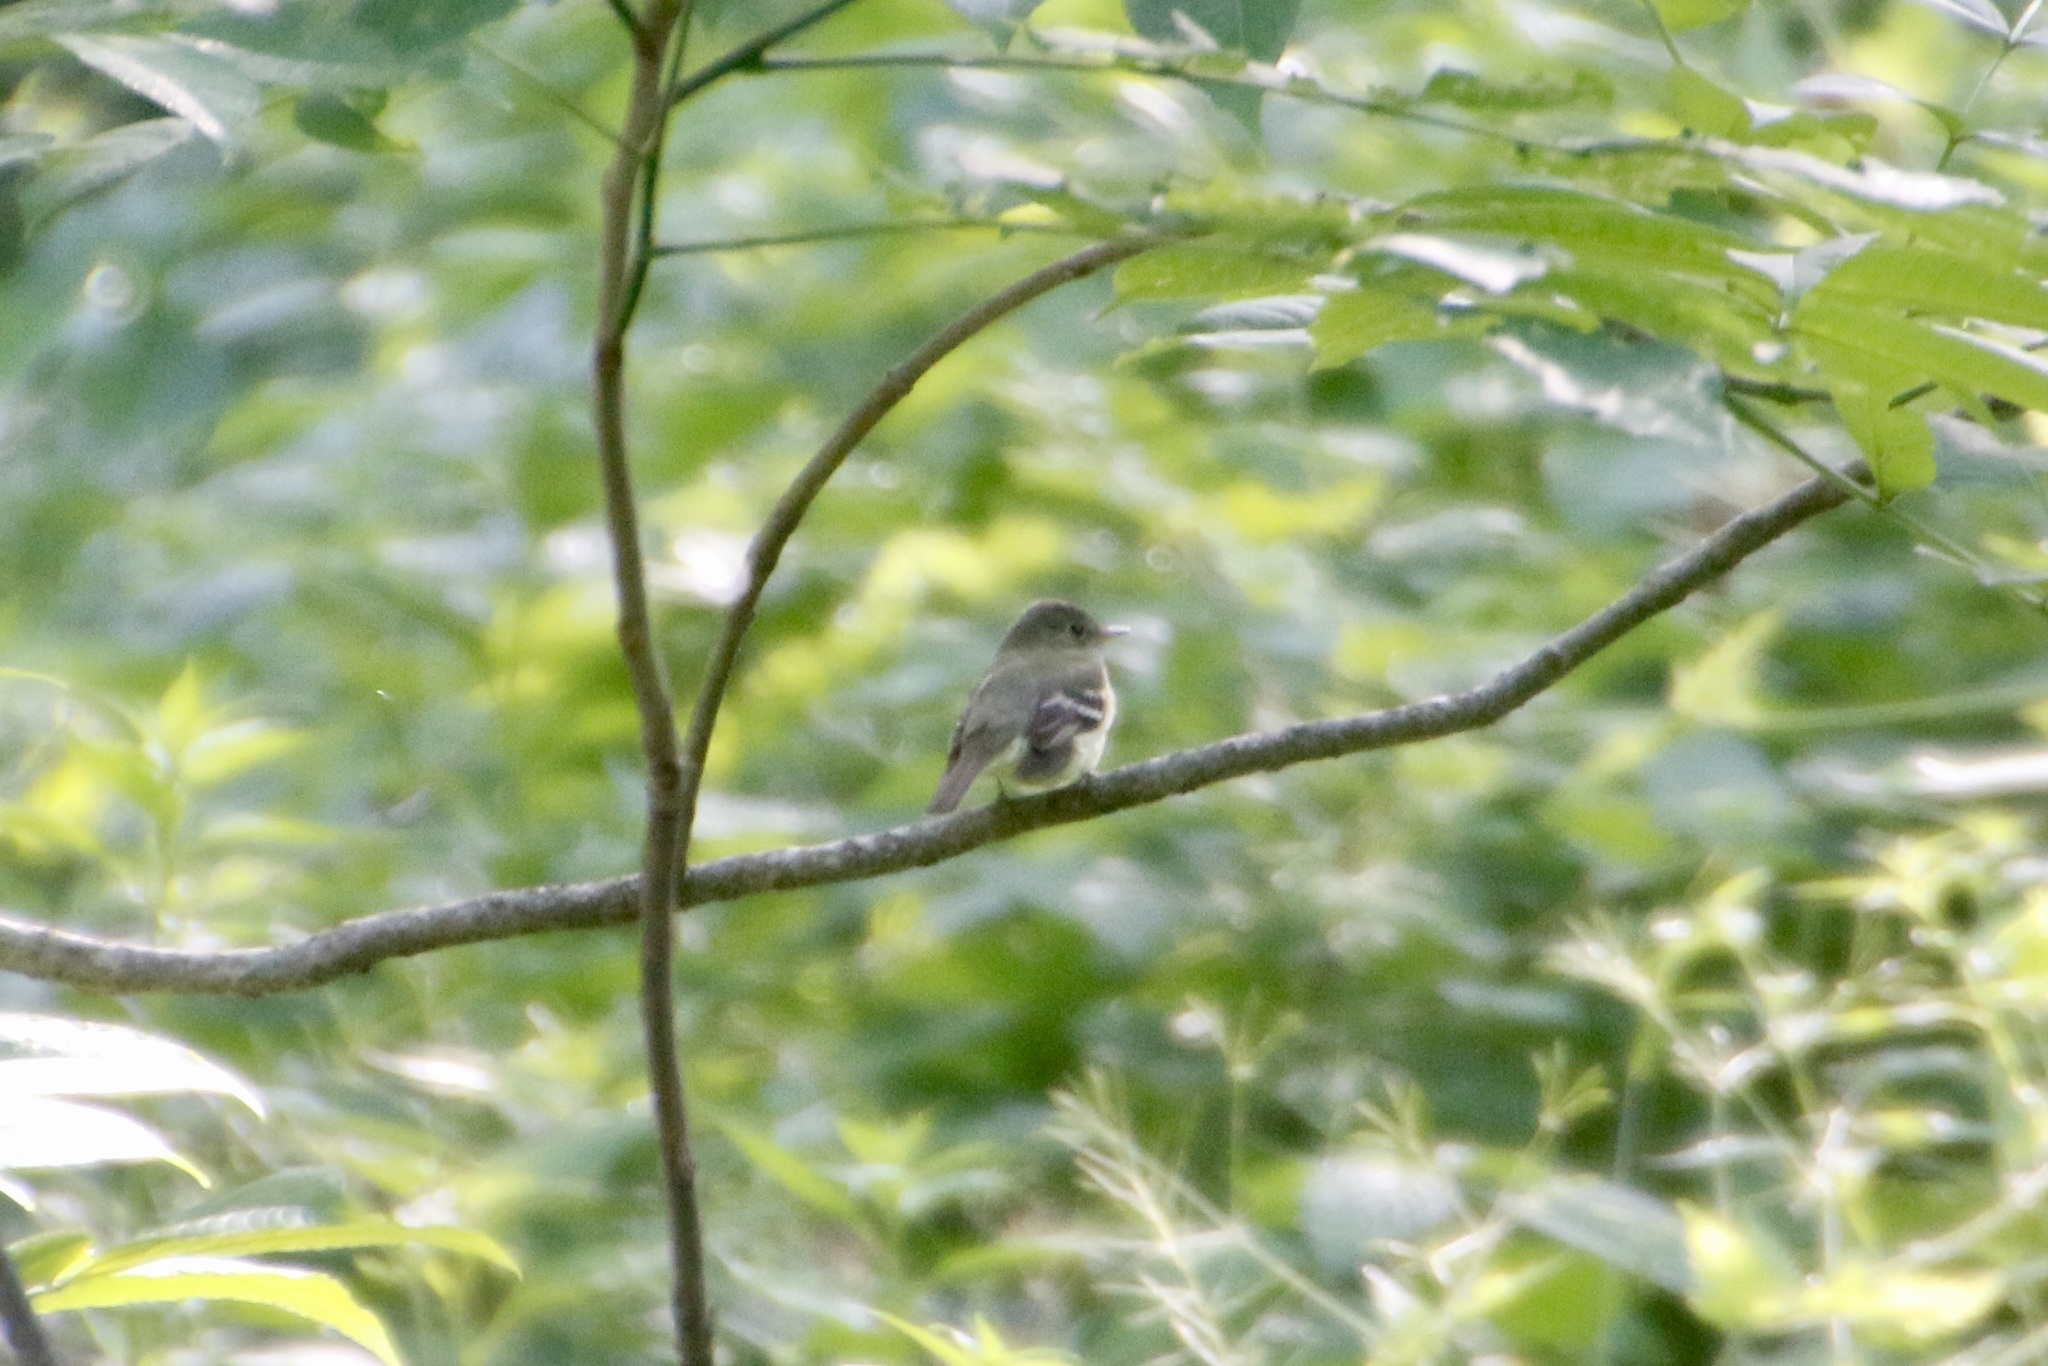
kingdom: Animalia
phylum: Chordata
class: Aves
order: Passeriformes
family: Tyrannidae
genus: Empidonax
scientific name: Empidonax virescens
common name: Acadian flycatcher
